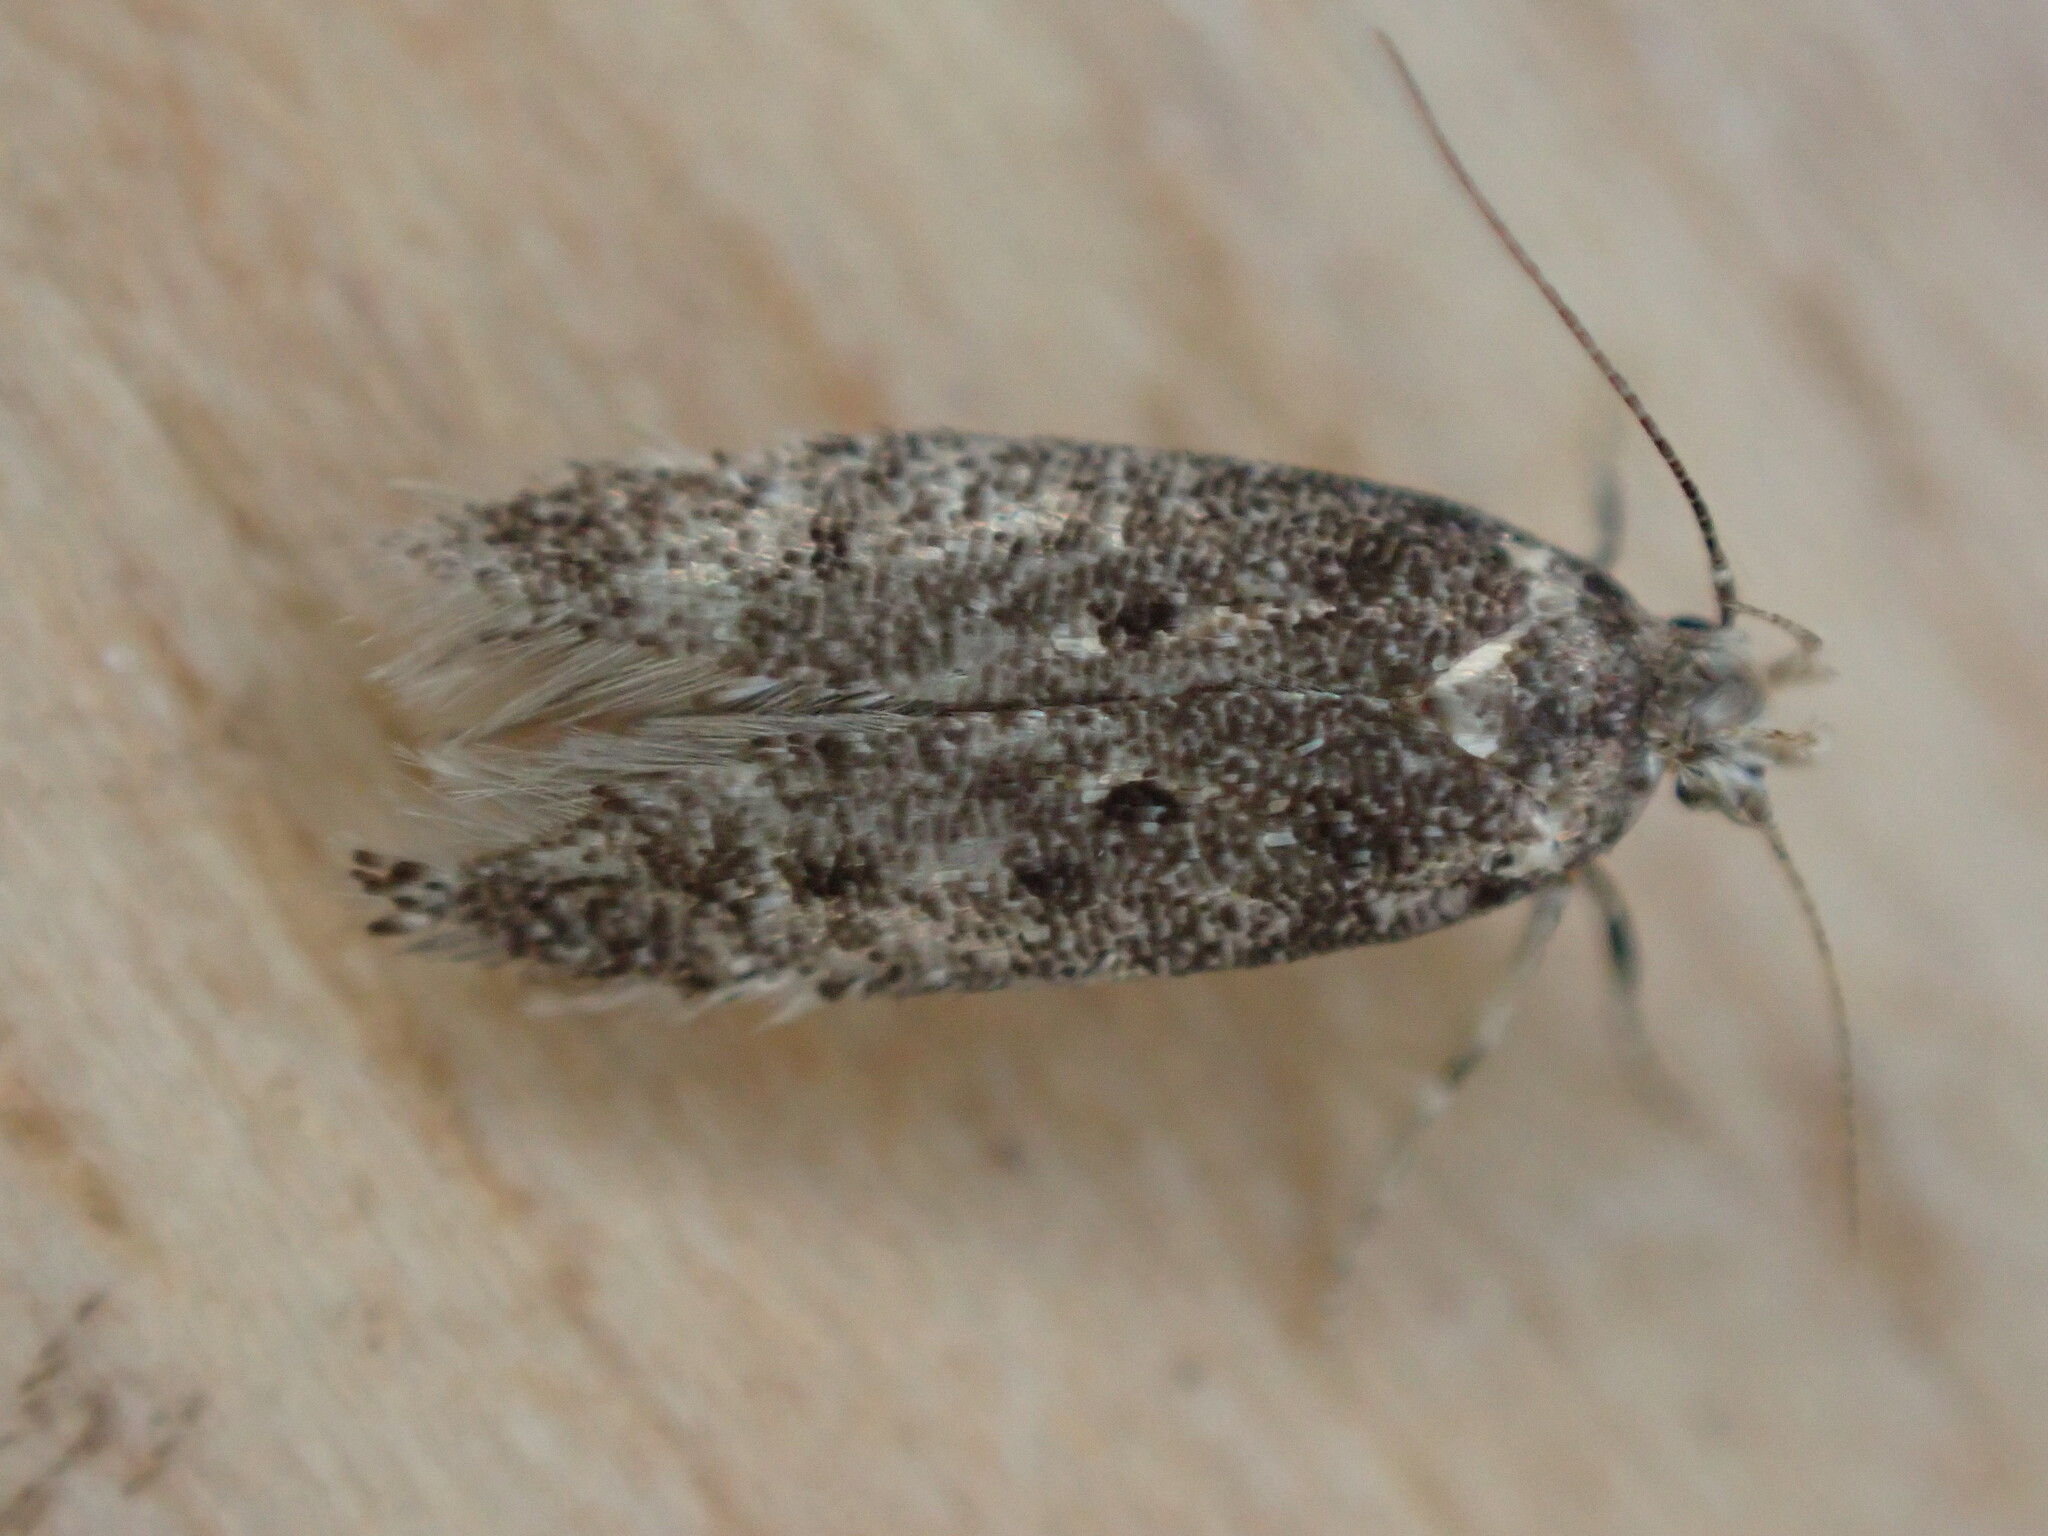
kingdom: Animalia
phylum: Arthropoda
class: Insecta
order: Lepidoptera
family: Gelechiidae
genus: Bryotropha
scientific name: Bryotropha affinis
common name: Dark groundling
